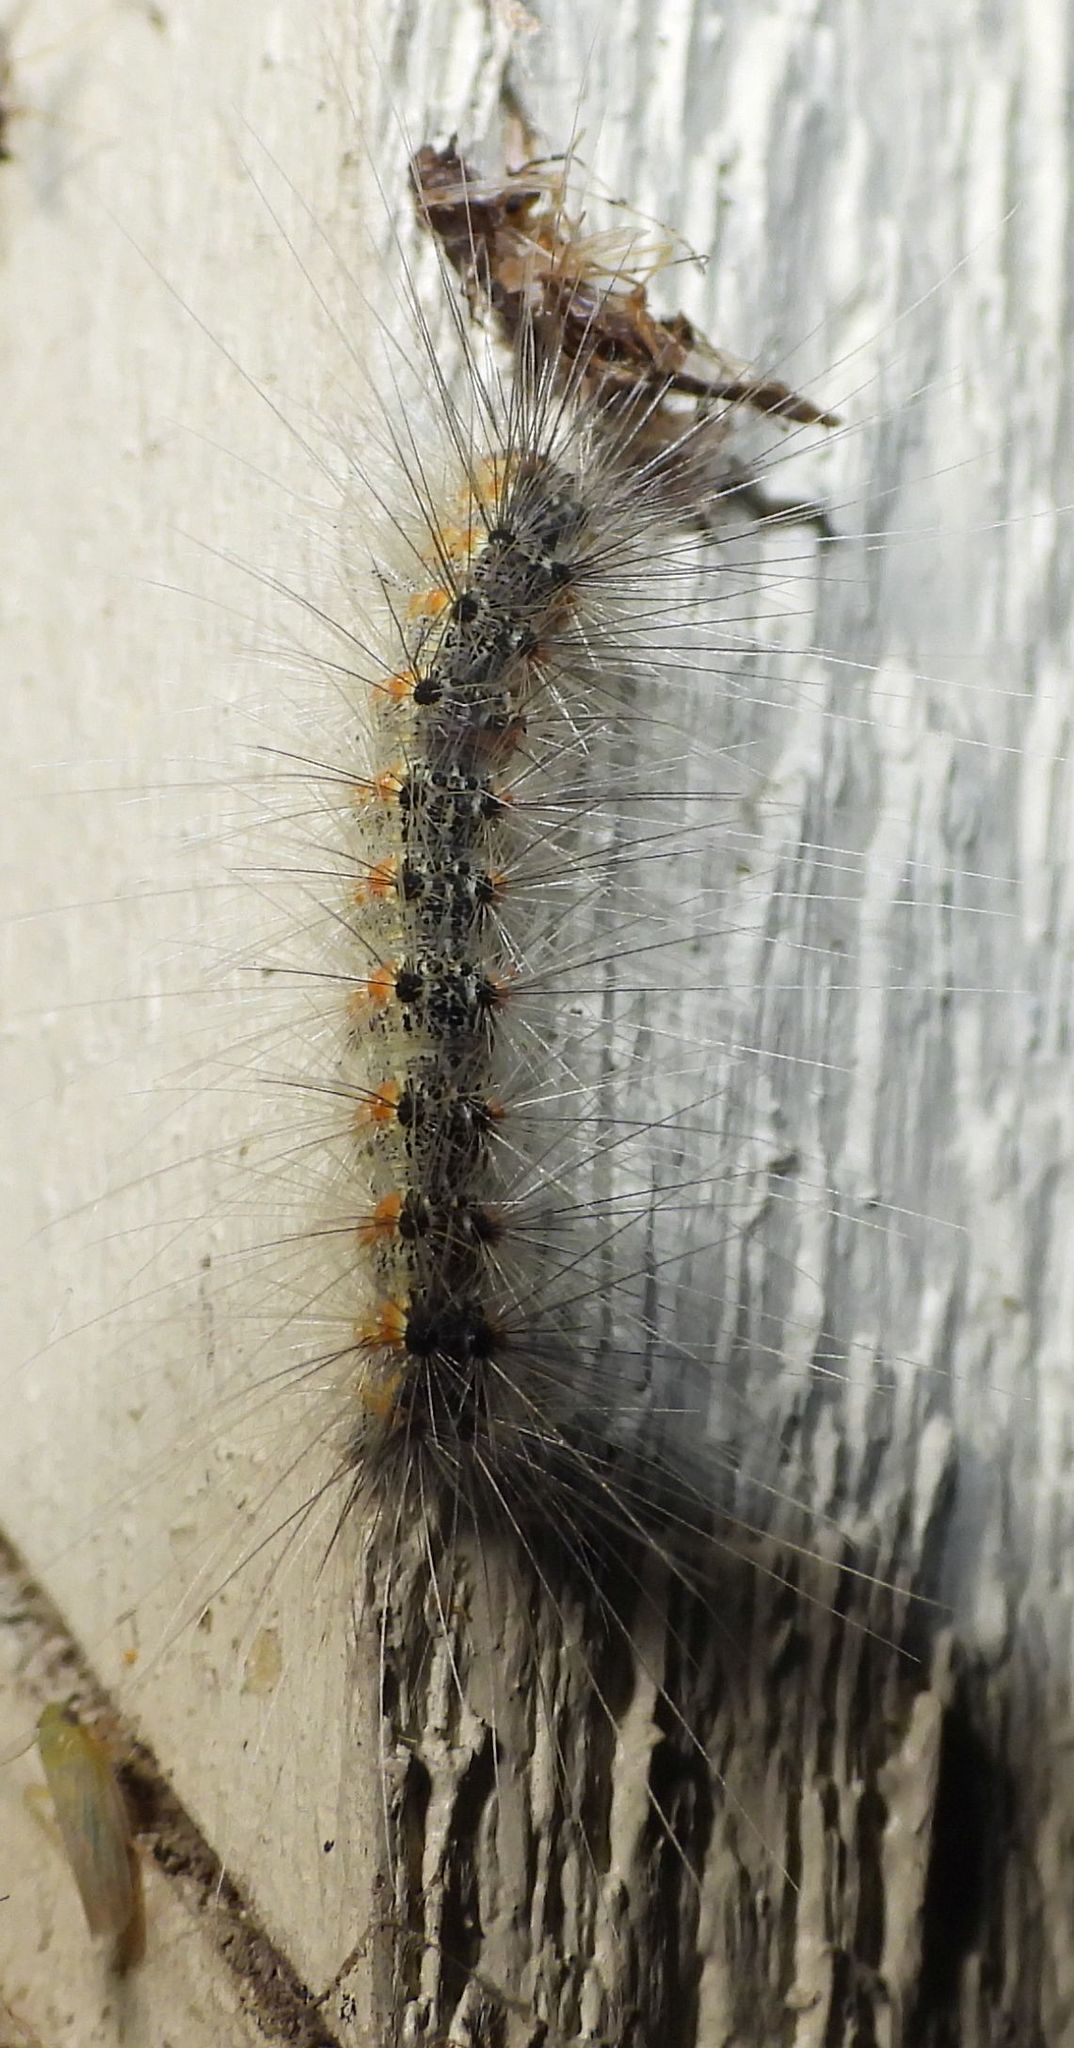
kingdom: Animalia
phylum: Arthropoda
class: Insecta
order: Lepidoptera
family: Erebidae
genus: Hyphantria
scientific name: Hyphantria cunea
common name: American white moth
